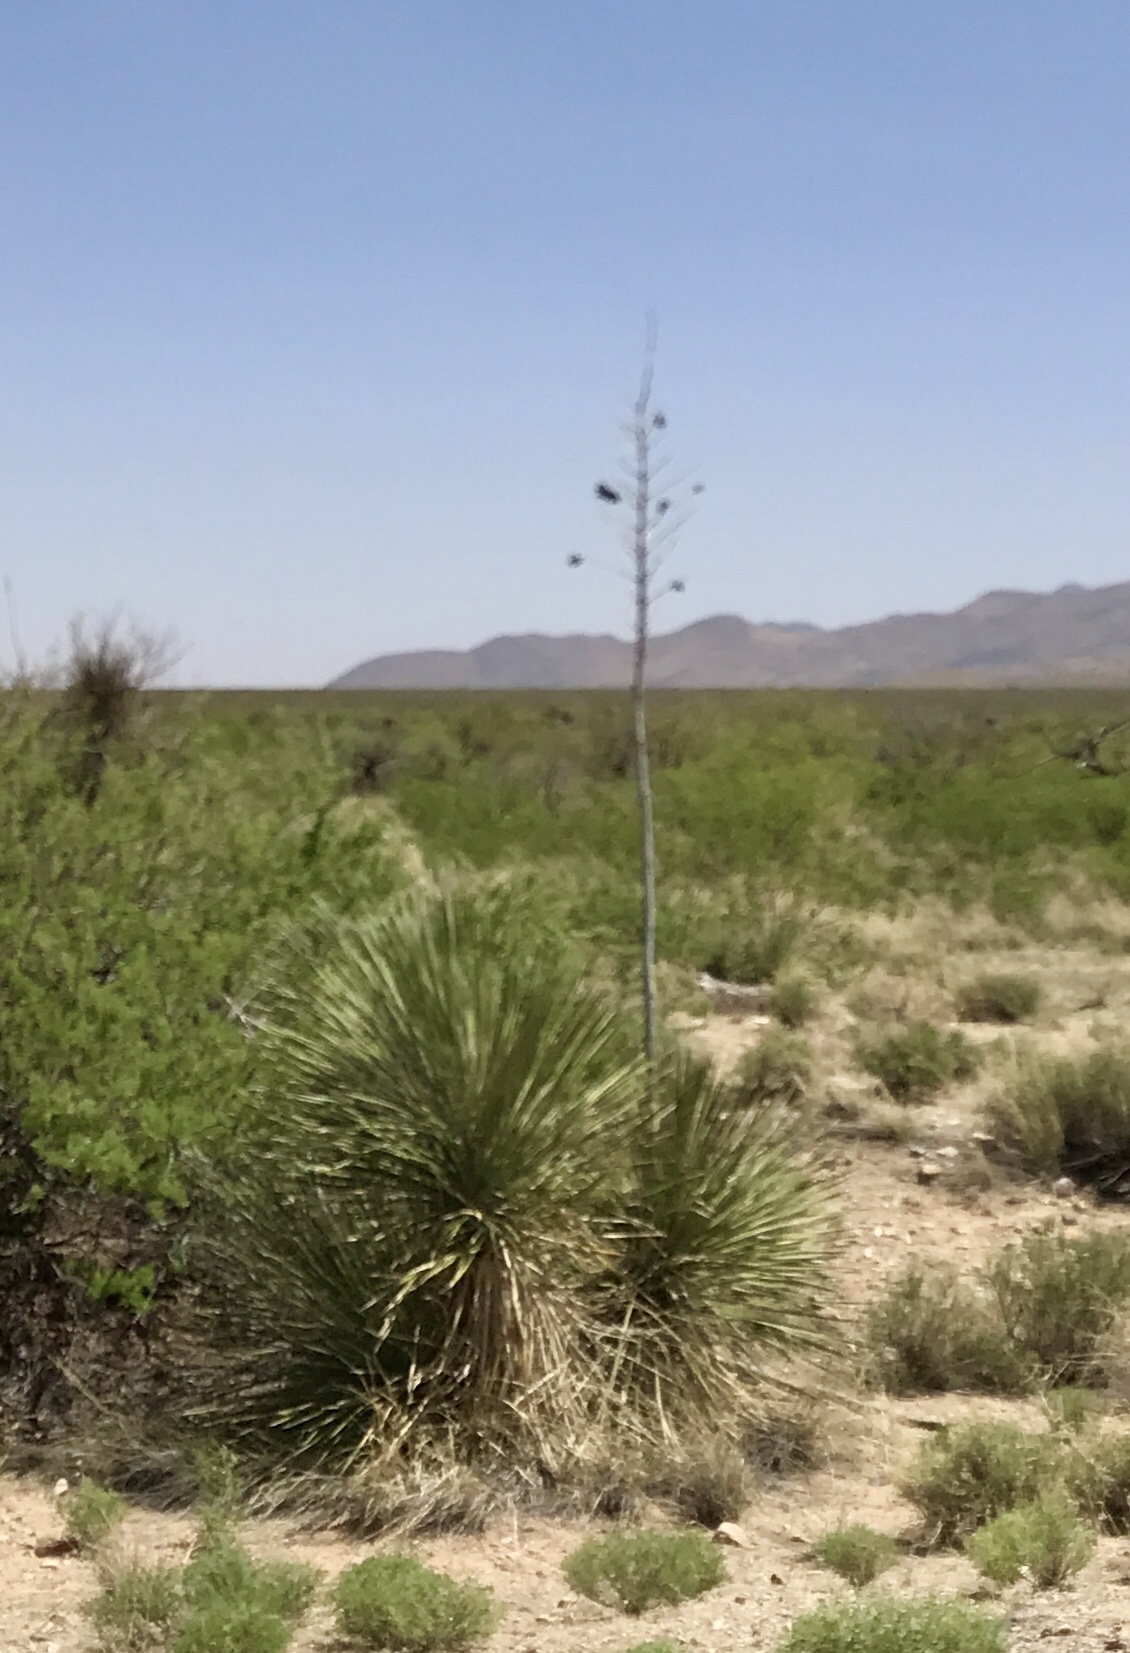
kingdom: Plantae
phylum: Tracheophyta
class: Liliopsida
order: Asparagales
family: Asparagaceae
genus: Yucca
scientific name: Yucca elata
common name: Palmella
